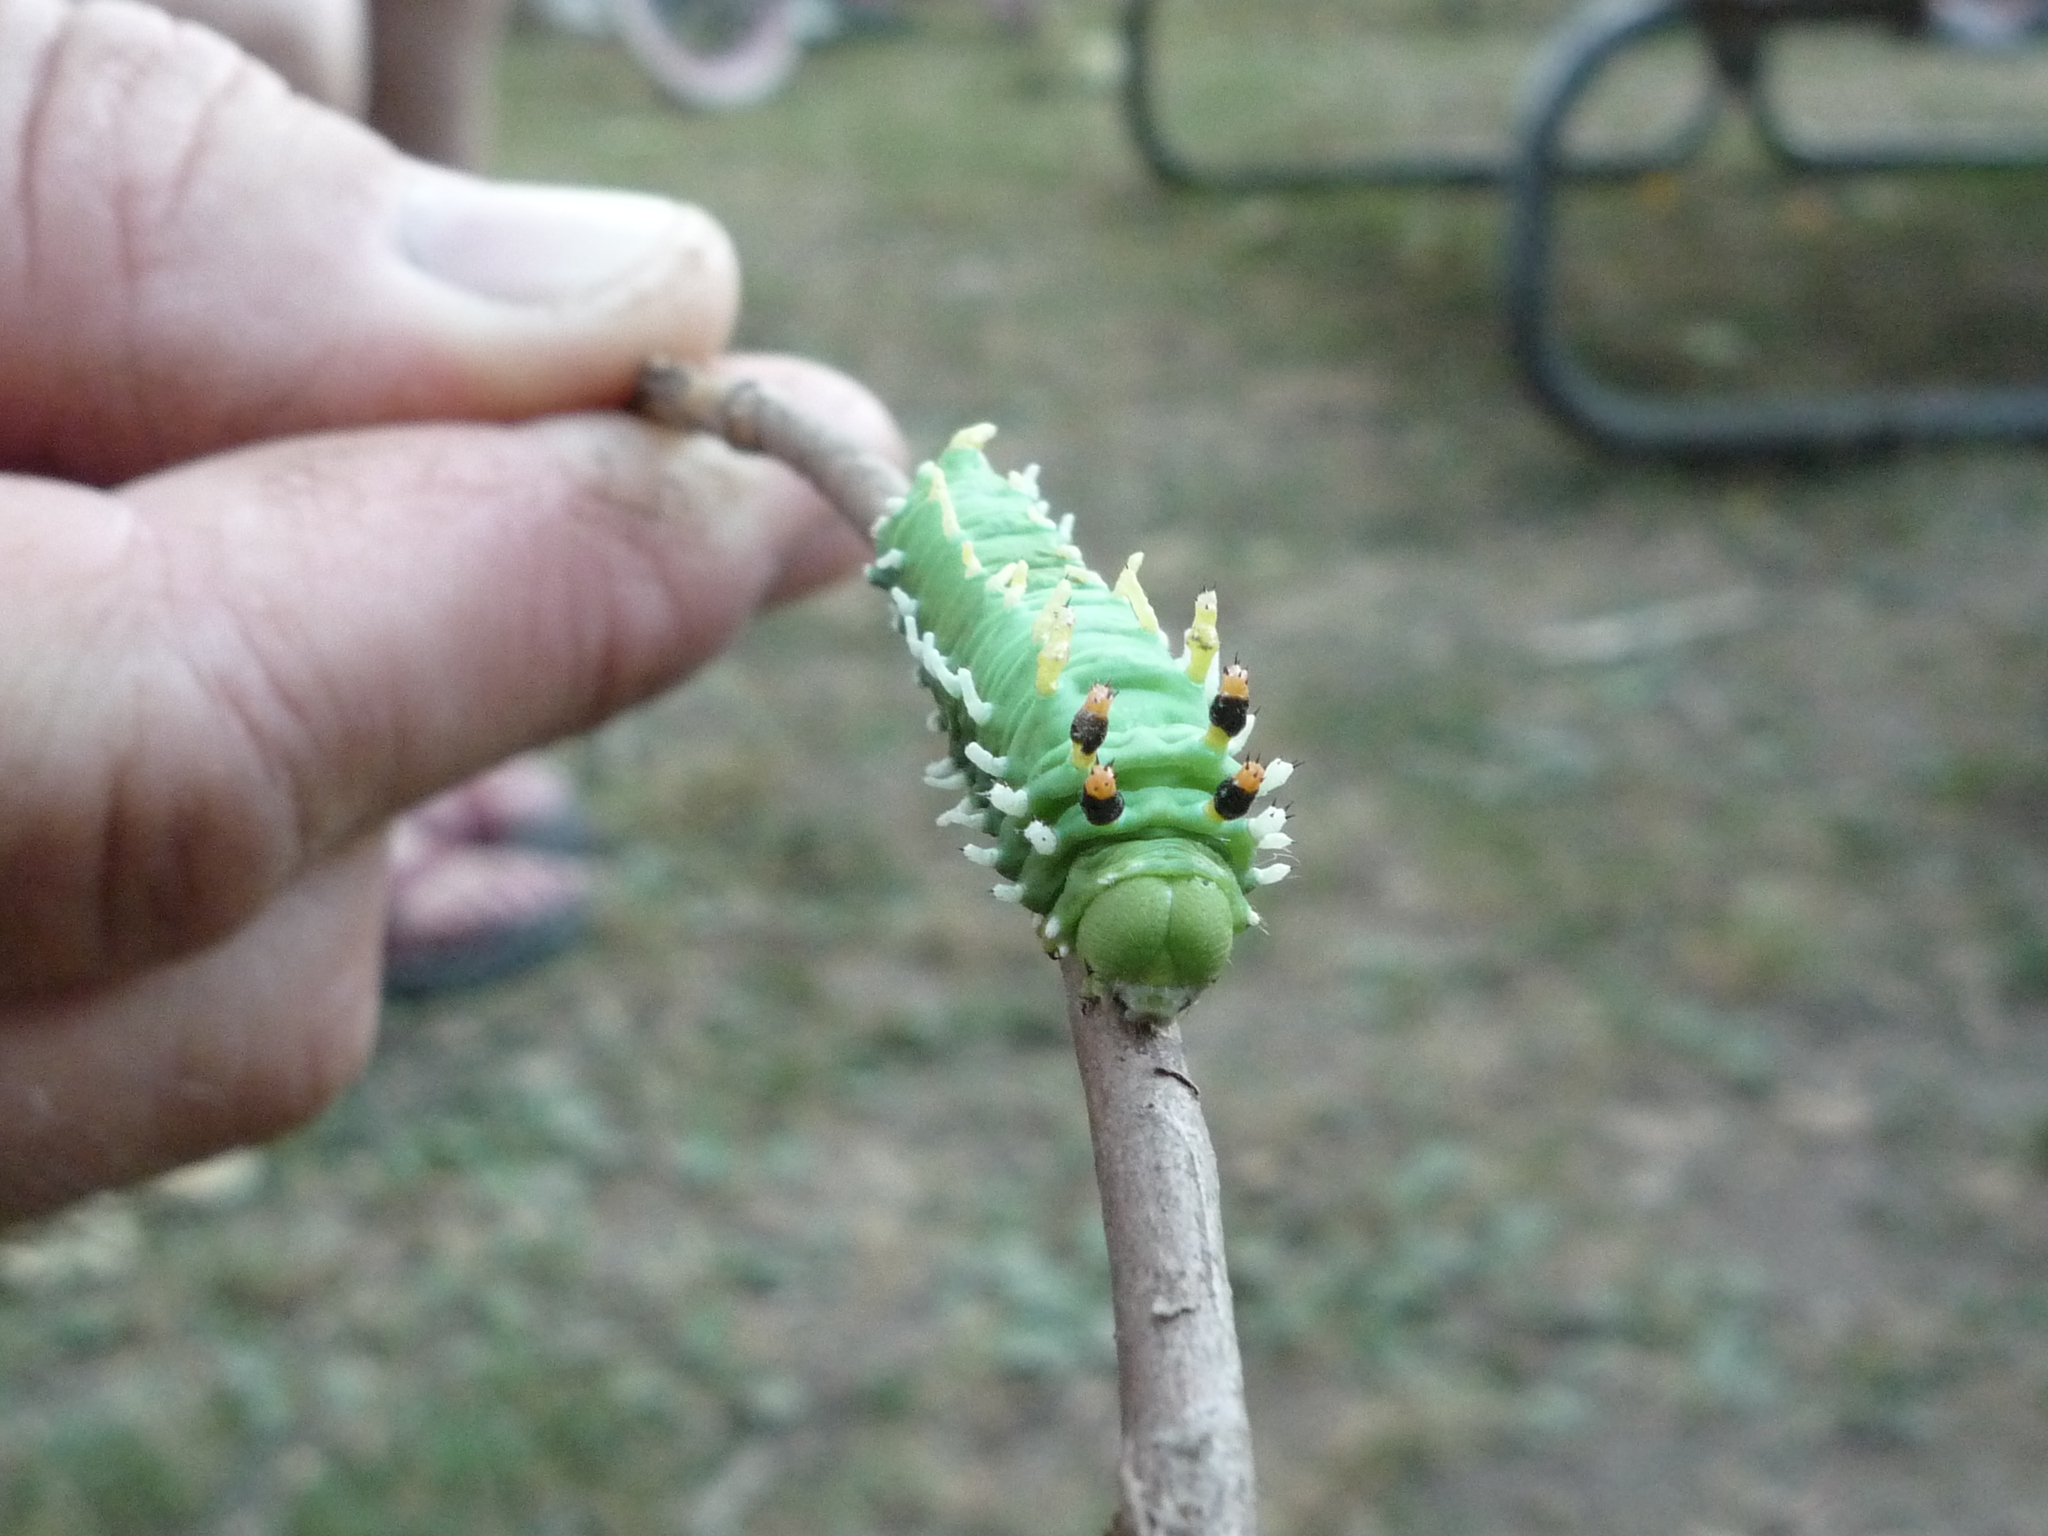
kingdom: Animalia
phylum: Arthropoda
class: Insecta
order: Lepidoptera
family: Saturniidae
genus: Hyalophora
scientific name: Hyalophora euryalus
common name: Ceanothus silkmoth
